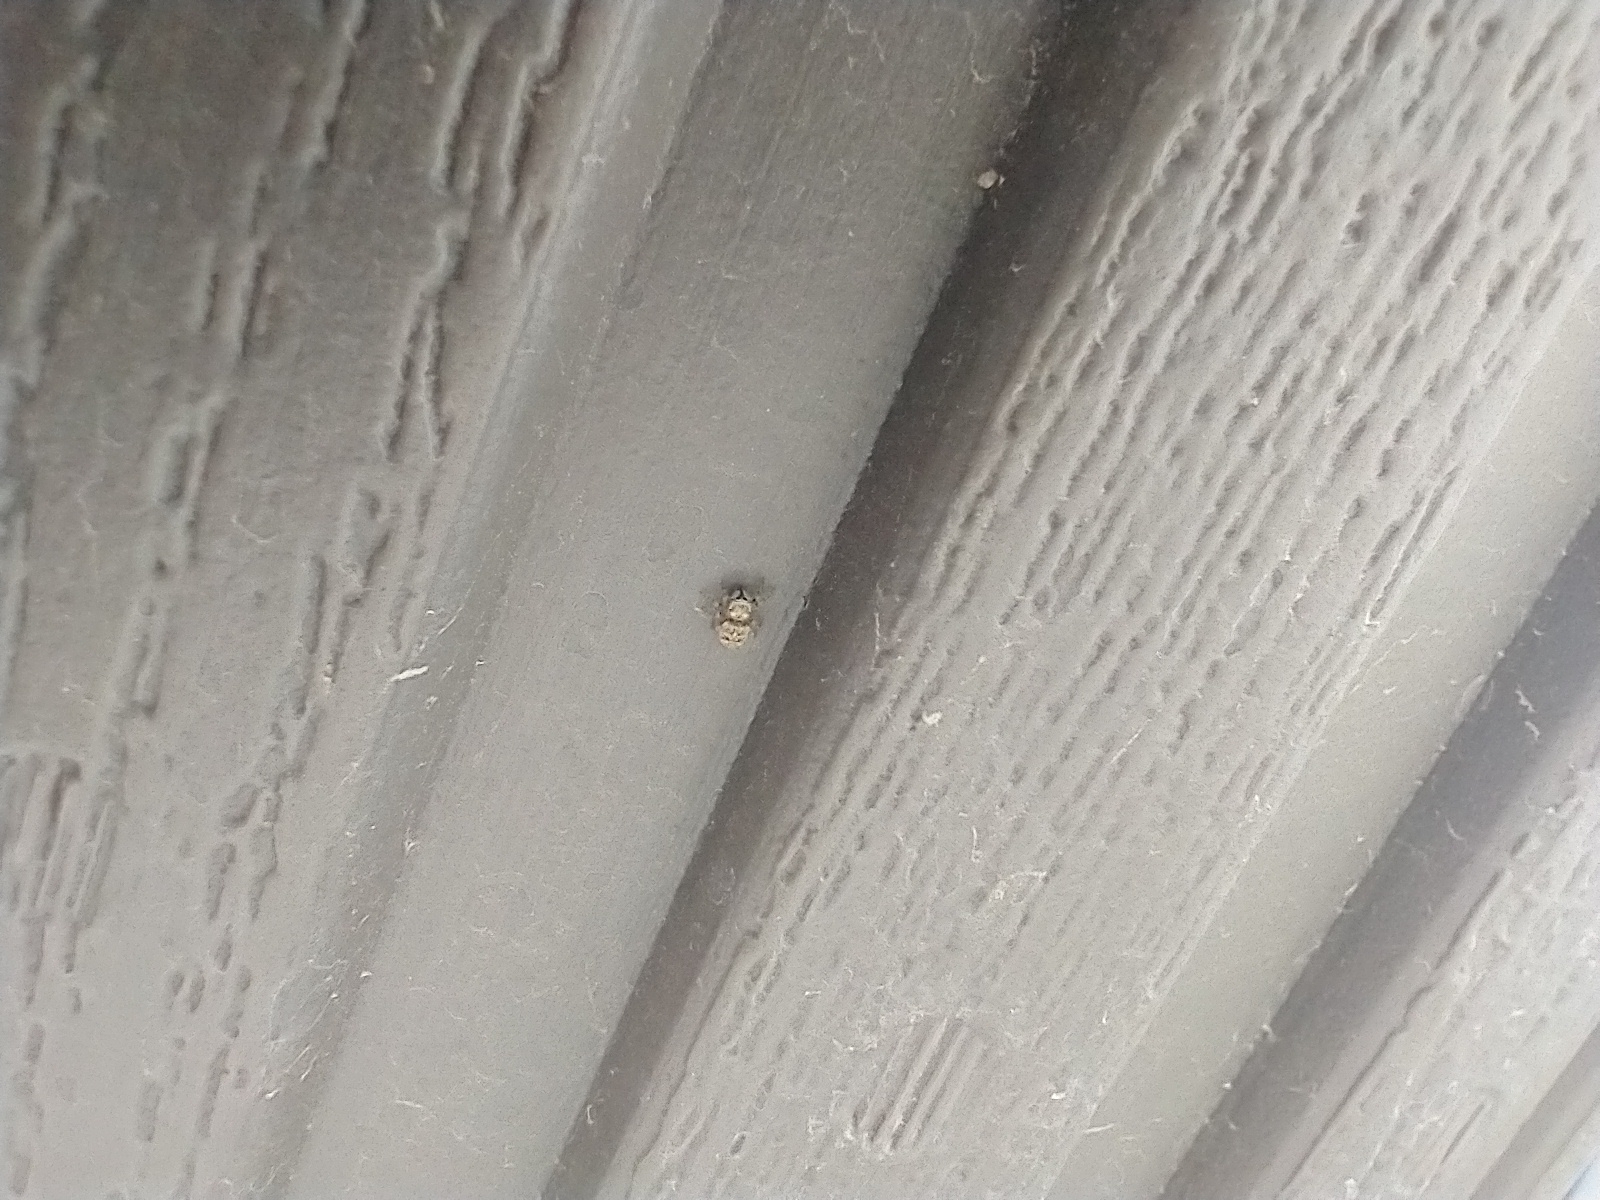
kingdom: Animalia
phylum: Arthropoda
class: Arachnida
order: Araneae
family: Salticidae
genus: Attulus
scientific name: Attulus ammophilus
